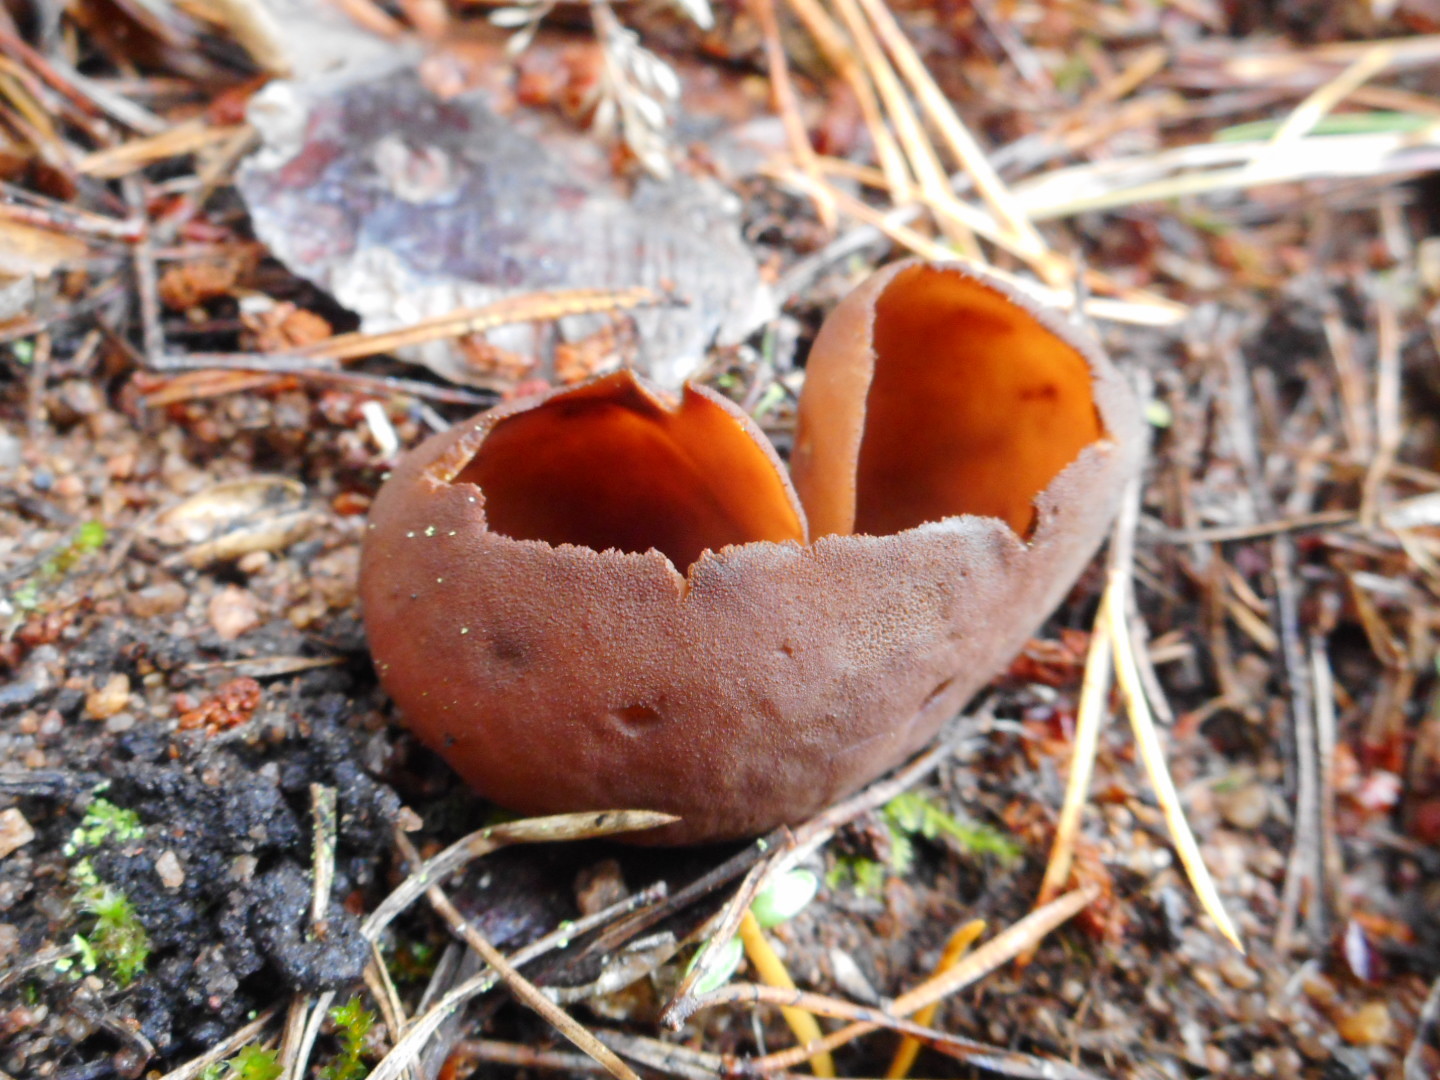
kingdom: Fungi
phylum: Ascomycota
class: Pezizomycetes
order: Pezizales
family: Otideaceae
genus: Otidea
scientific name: Otidea bufonia
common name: Toad's ear
